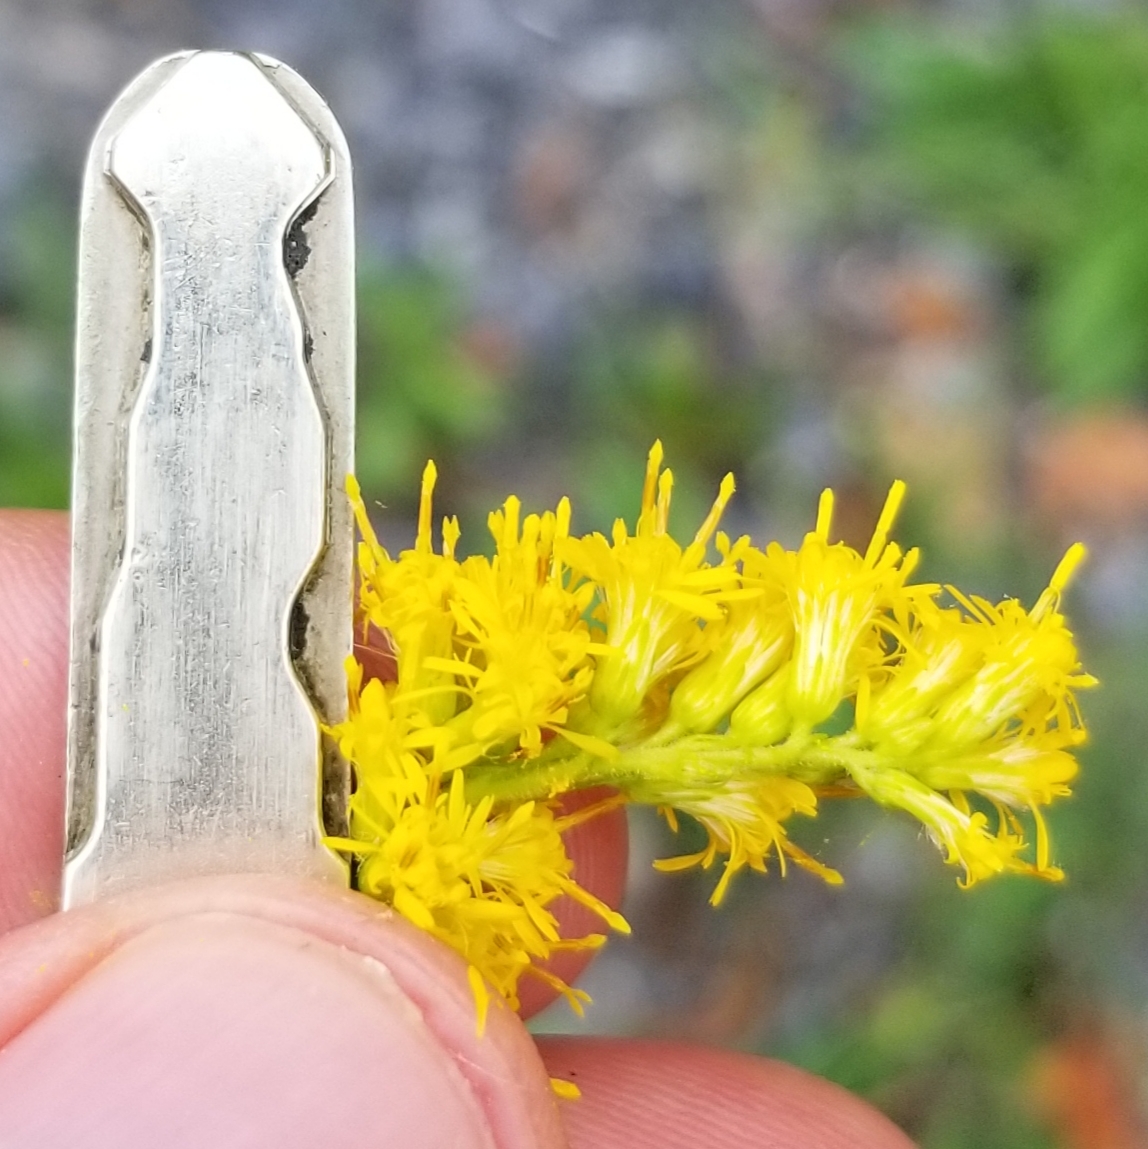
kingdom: Plantae
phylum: Tracheophyta
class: Magnoliopsida
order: Asterales
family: Asteraceae
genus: Solidago
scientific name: Solidago altissima
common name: Late goldenrod
